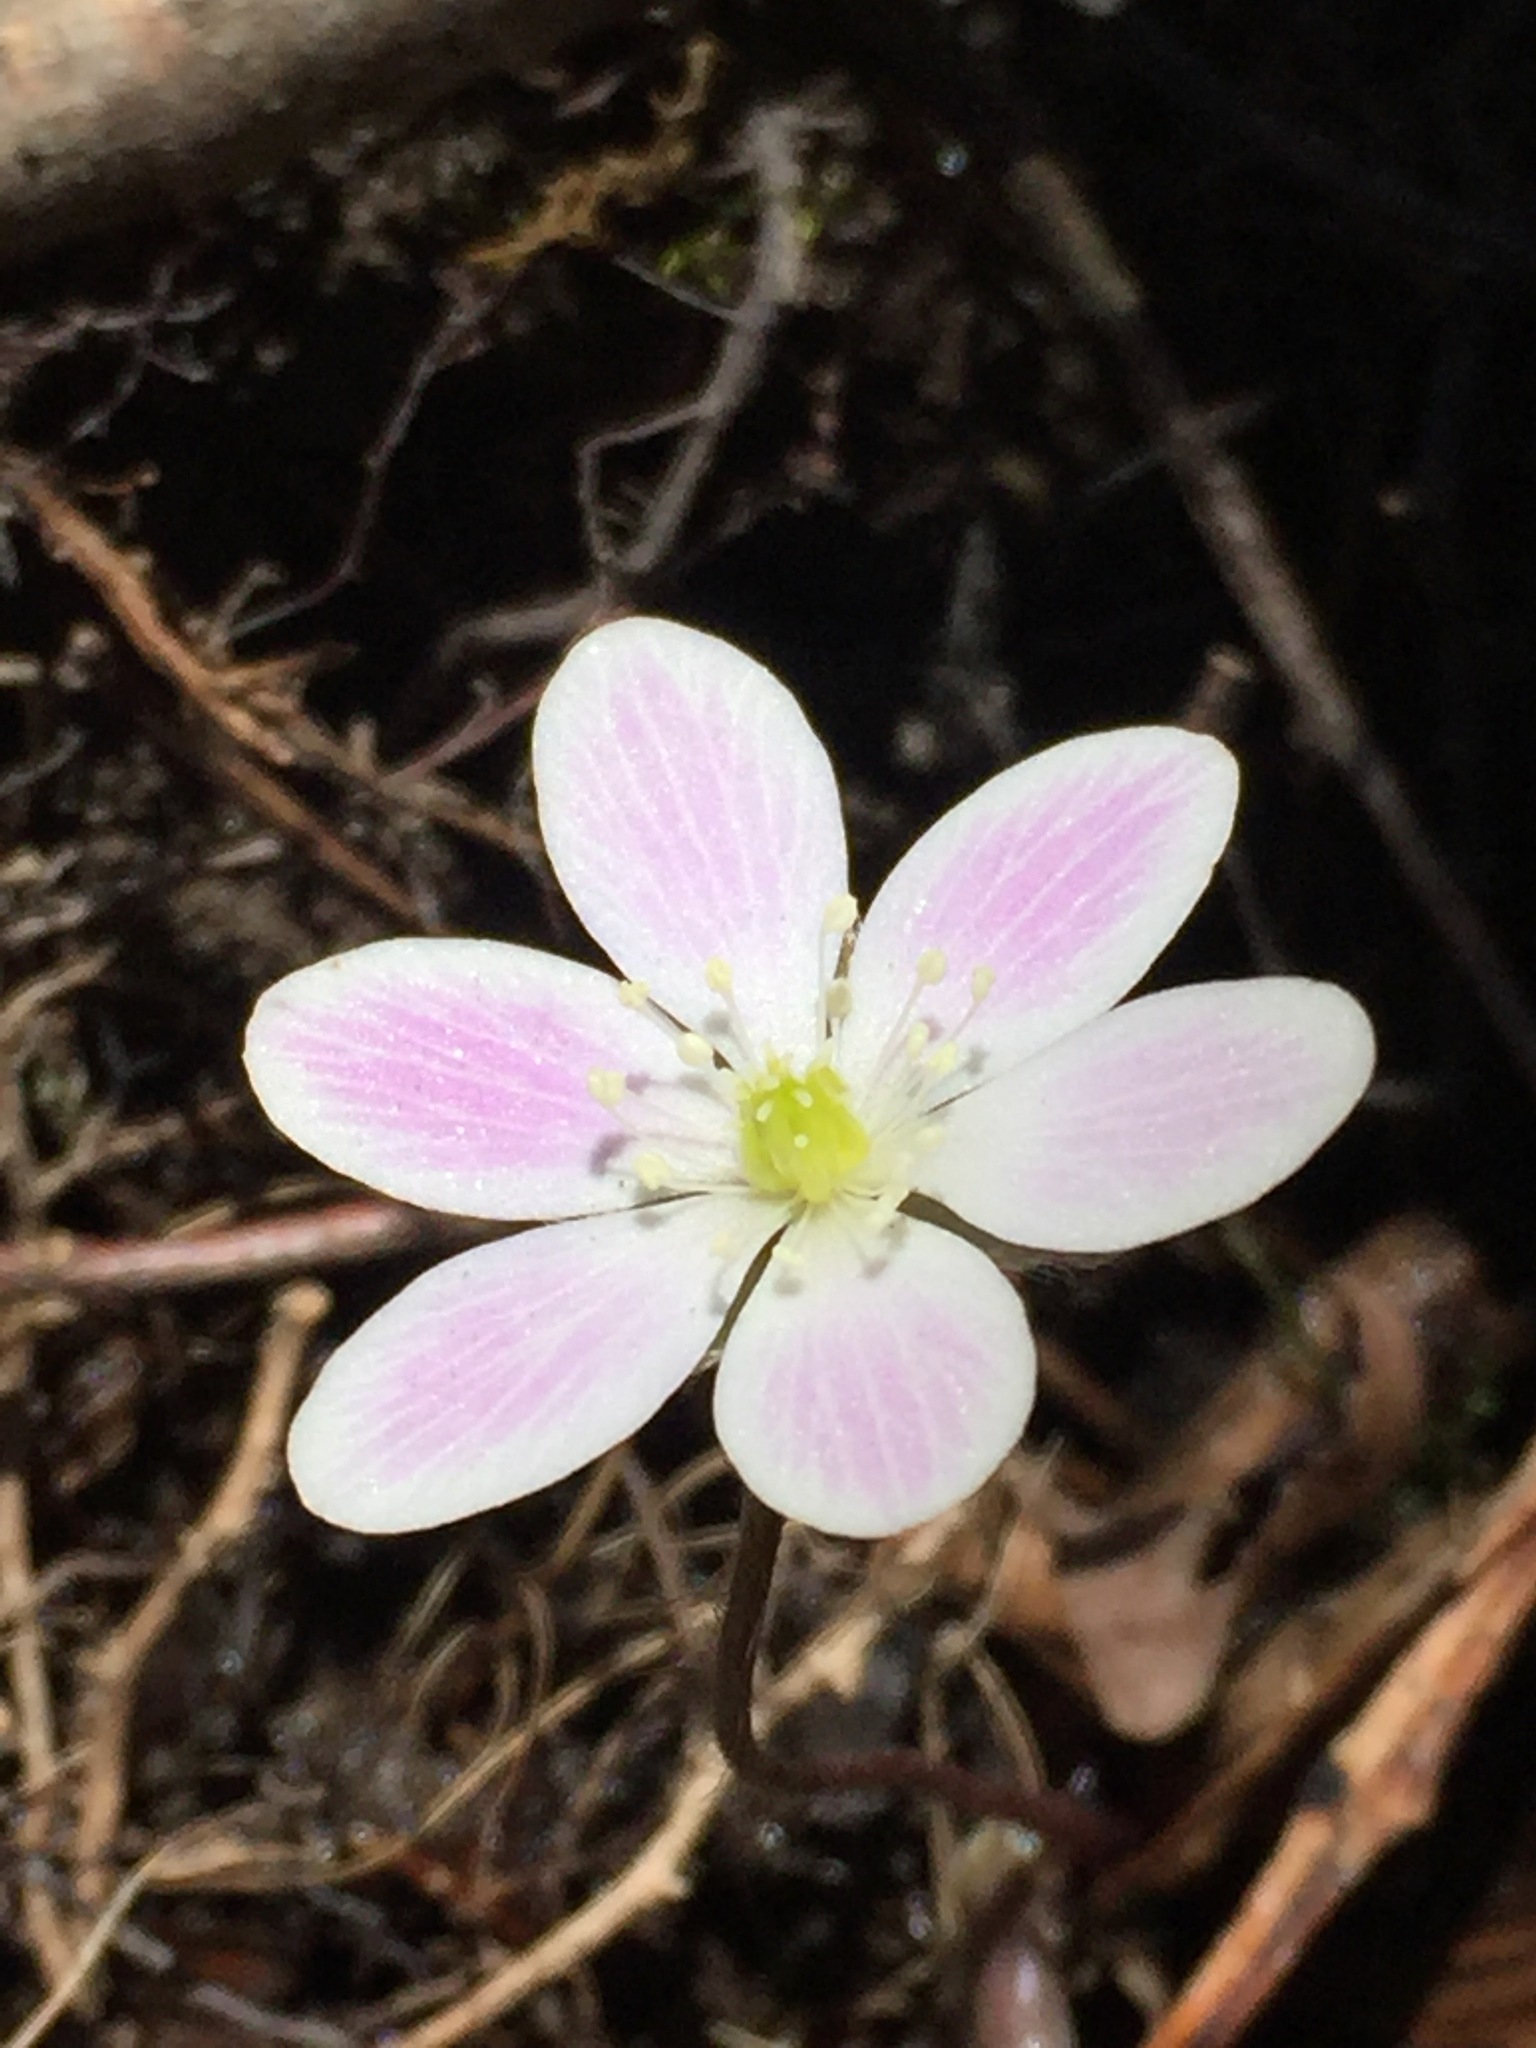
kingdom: Plantae
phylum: Tracheophyta
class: Magnoliopsida
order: Ranunculales
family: Ranunculaceae
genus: Hepatica
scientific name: Hepatica americana
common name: American hepatica
